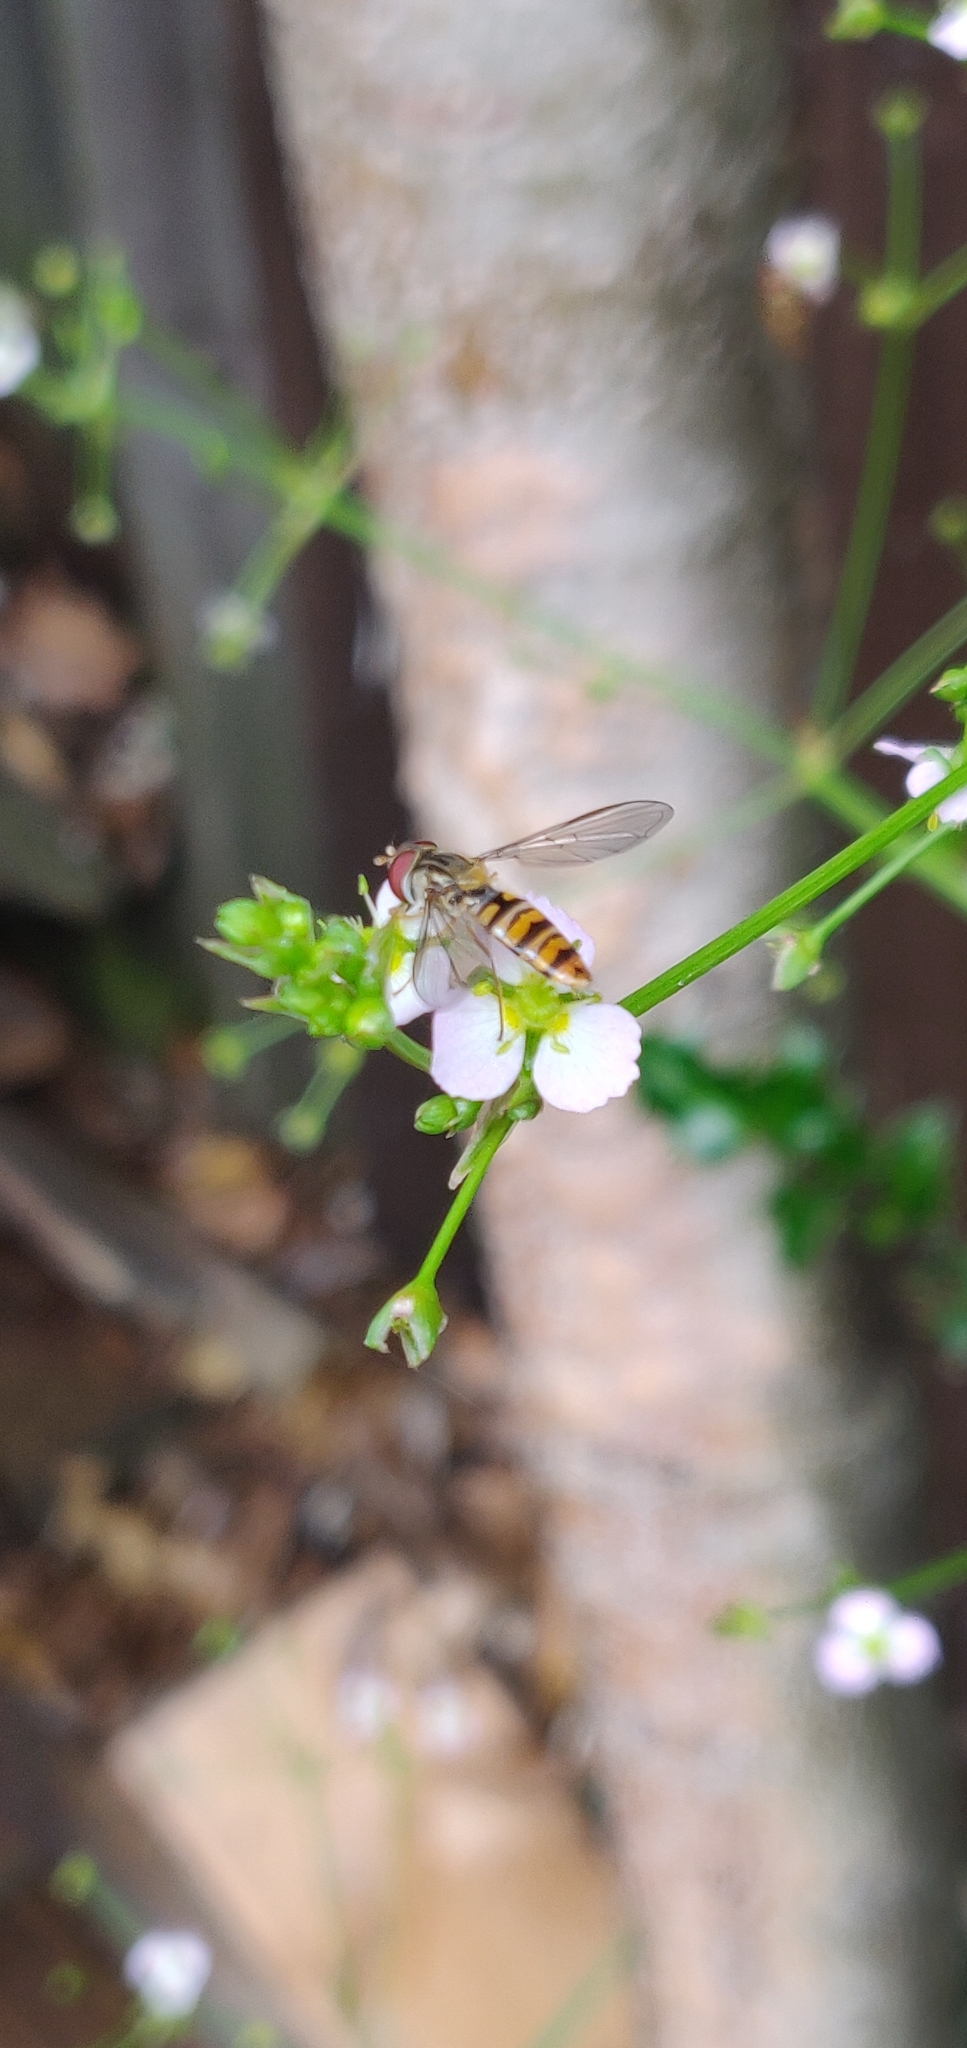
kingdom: Animalia
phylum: Arthropoda
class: Insecta
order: Diptera
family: Syrphidae
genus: Episyrphus
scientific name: Episyrphus balteatus
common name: Marmalade hoverfly
